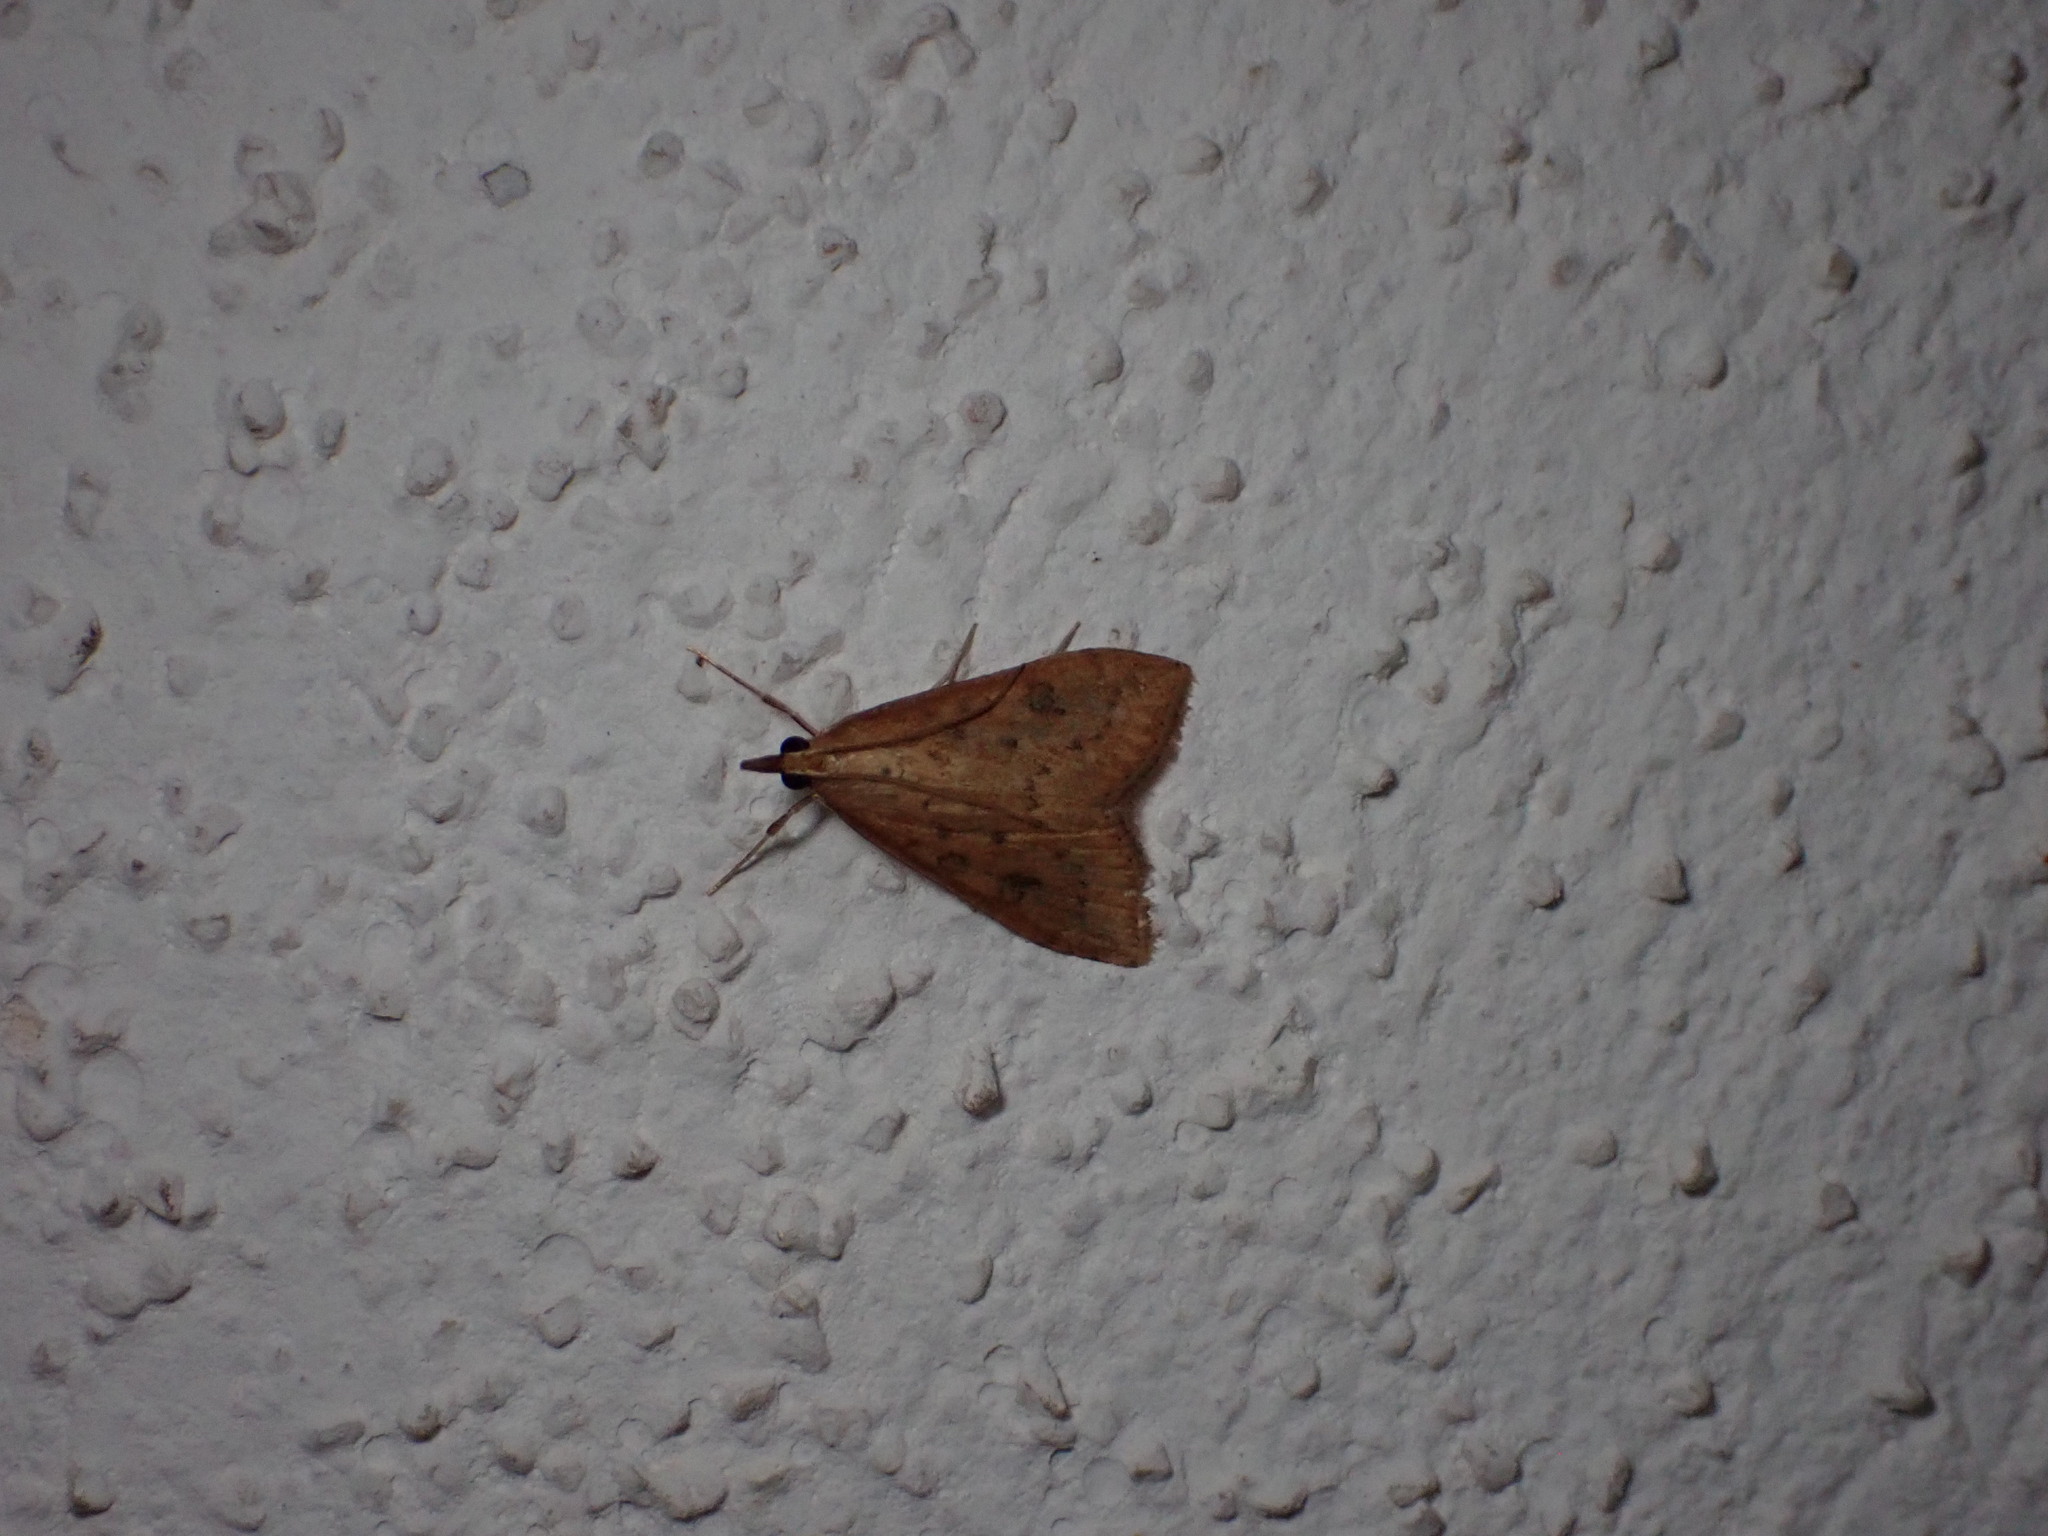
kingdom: Animalia
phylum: Arthropoda
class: Insecta
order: Lepidoptera
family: Crambidae
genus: Udea
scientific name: Udea ferrugalis
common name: Rusty dot
